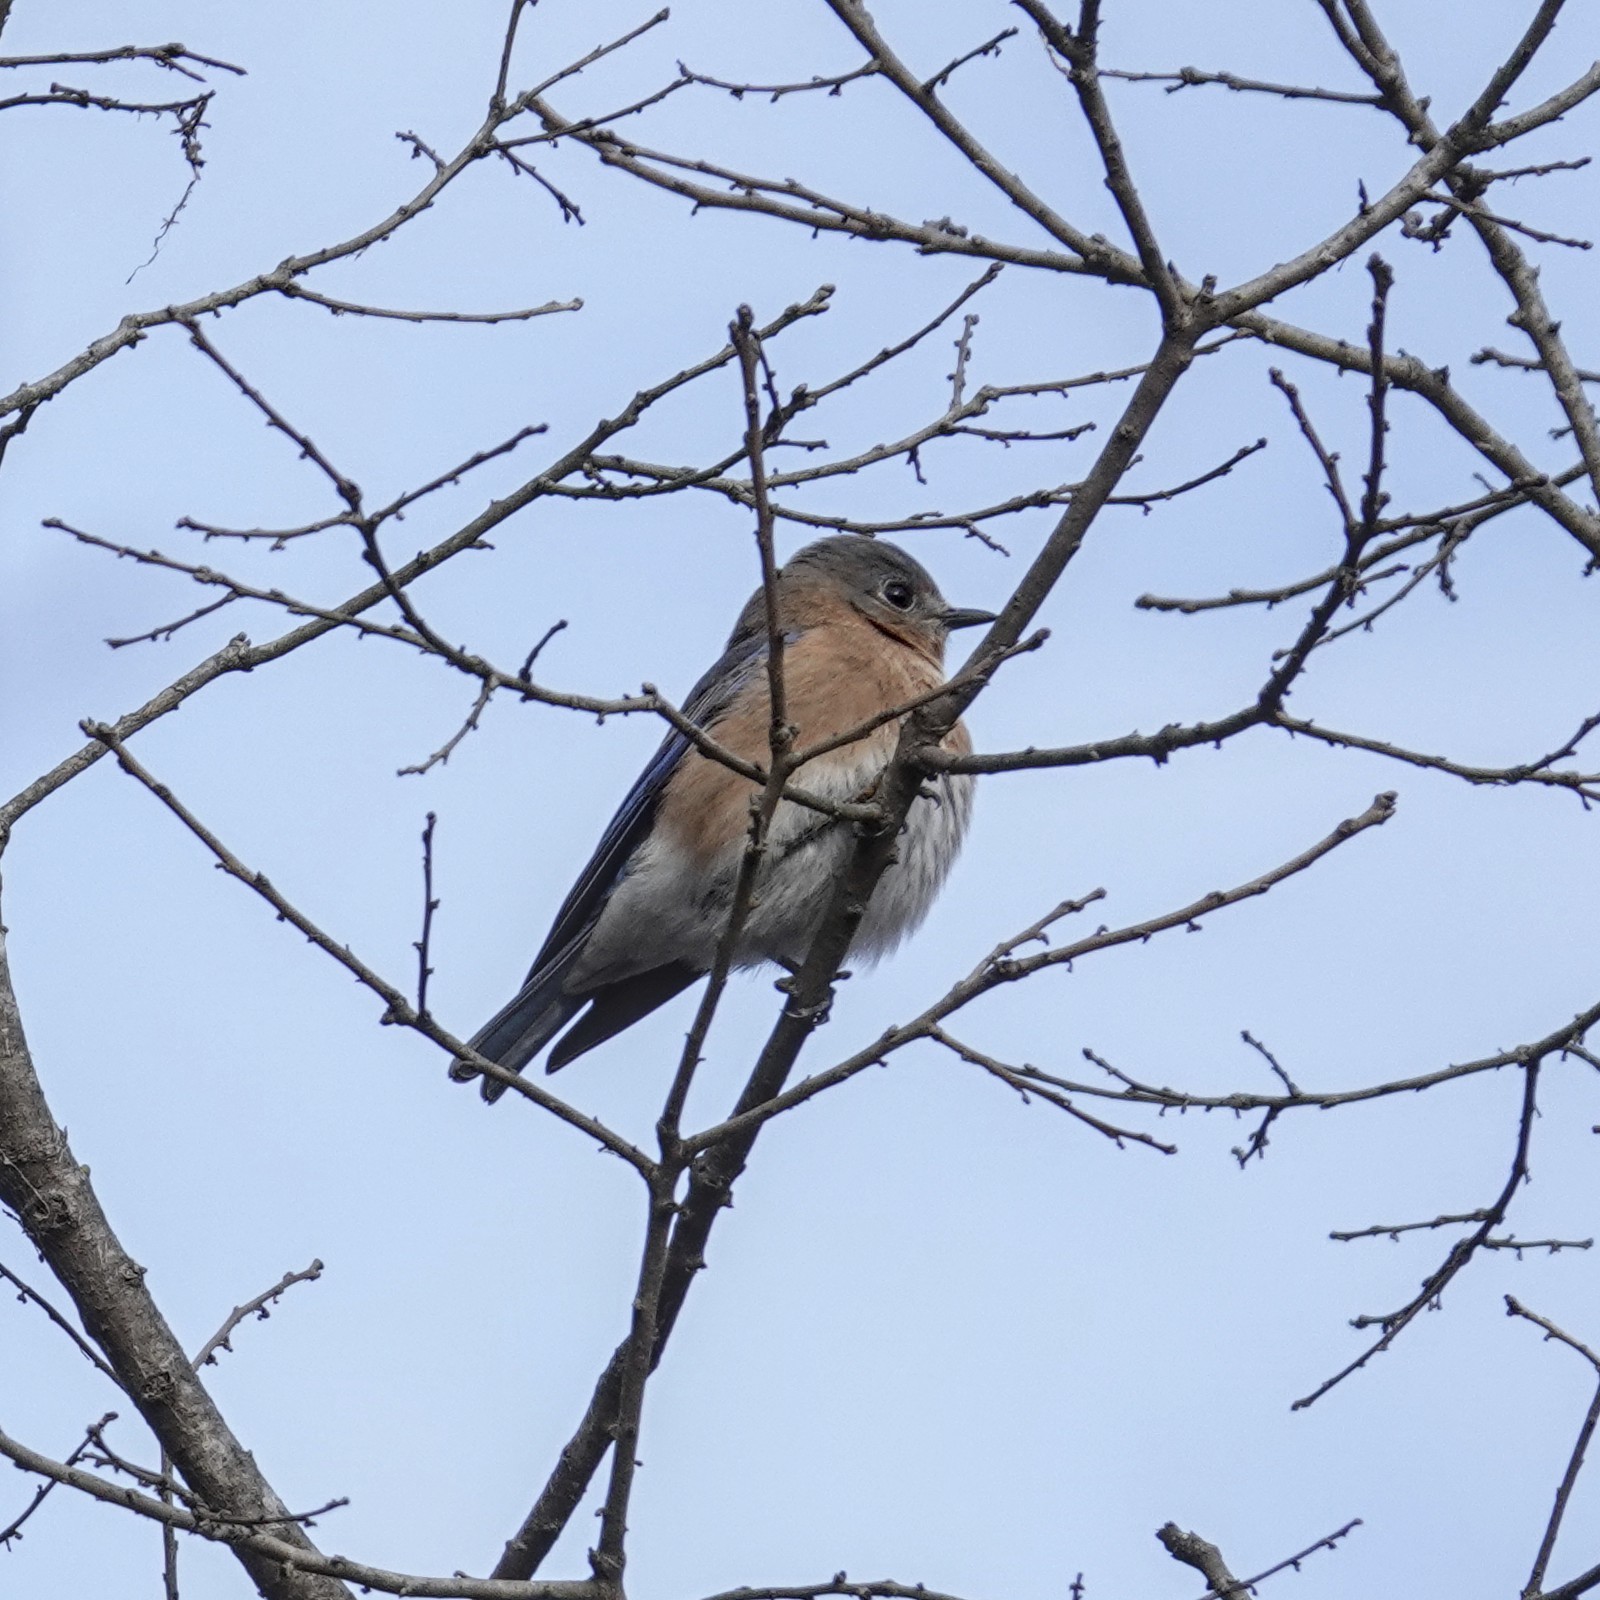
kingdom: Animalia
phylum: Chordata
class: Aves
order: Passeriformes
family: Turdidae
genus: Sialia
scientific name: Sialia sialis
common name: Eastern bluebird
